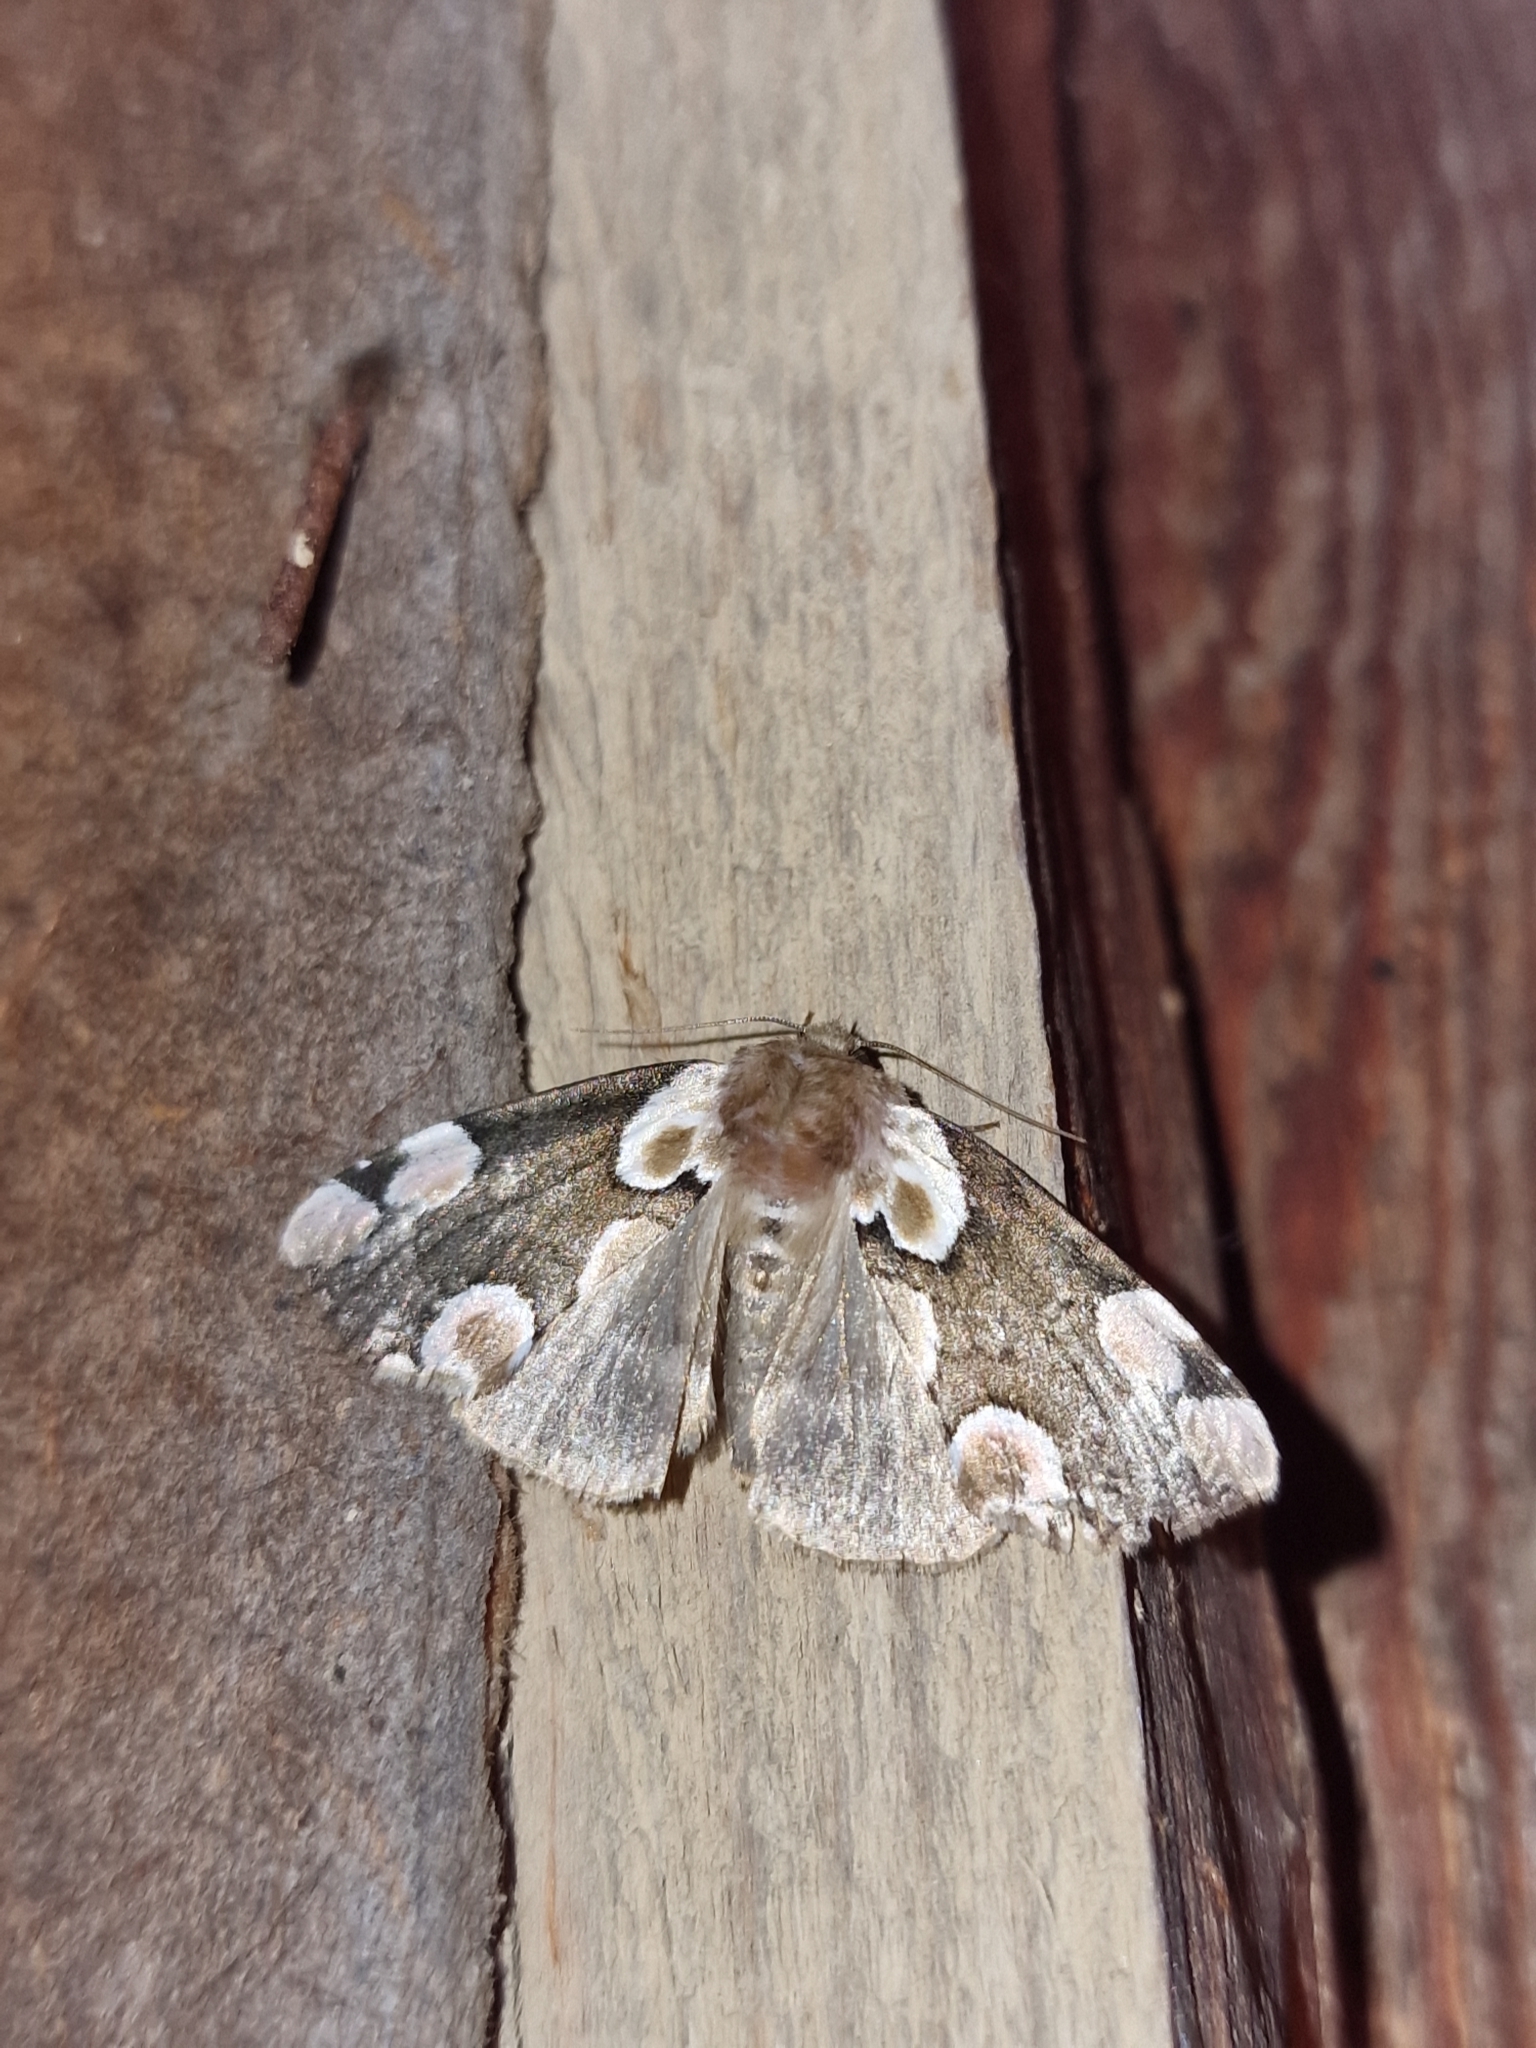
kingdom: Animalia
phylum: Arthropoda
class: Insecta
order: Lepidoptera
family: Drepanidae
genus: Thyatira
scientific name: Thyatira batis
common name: Peach blossom
